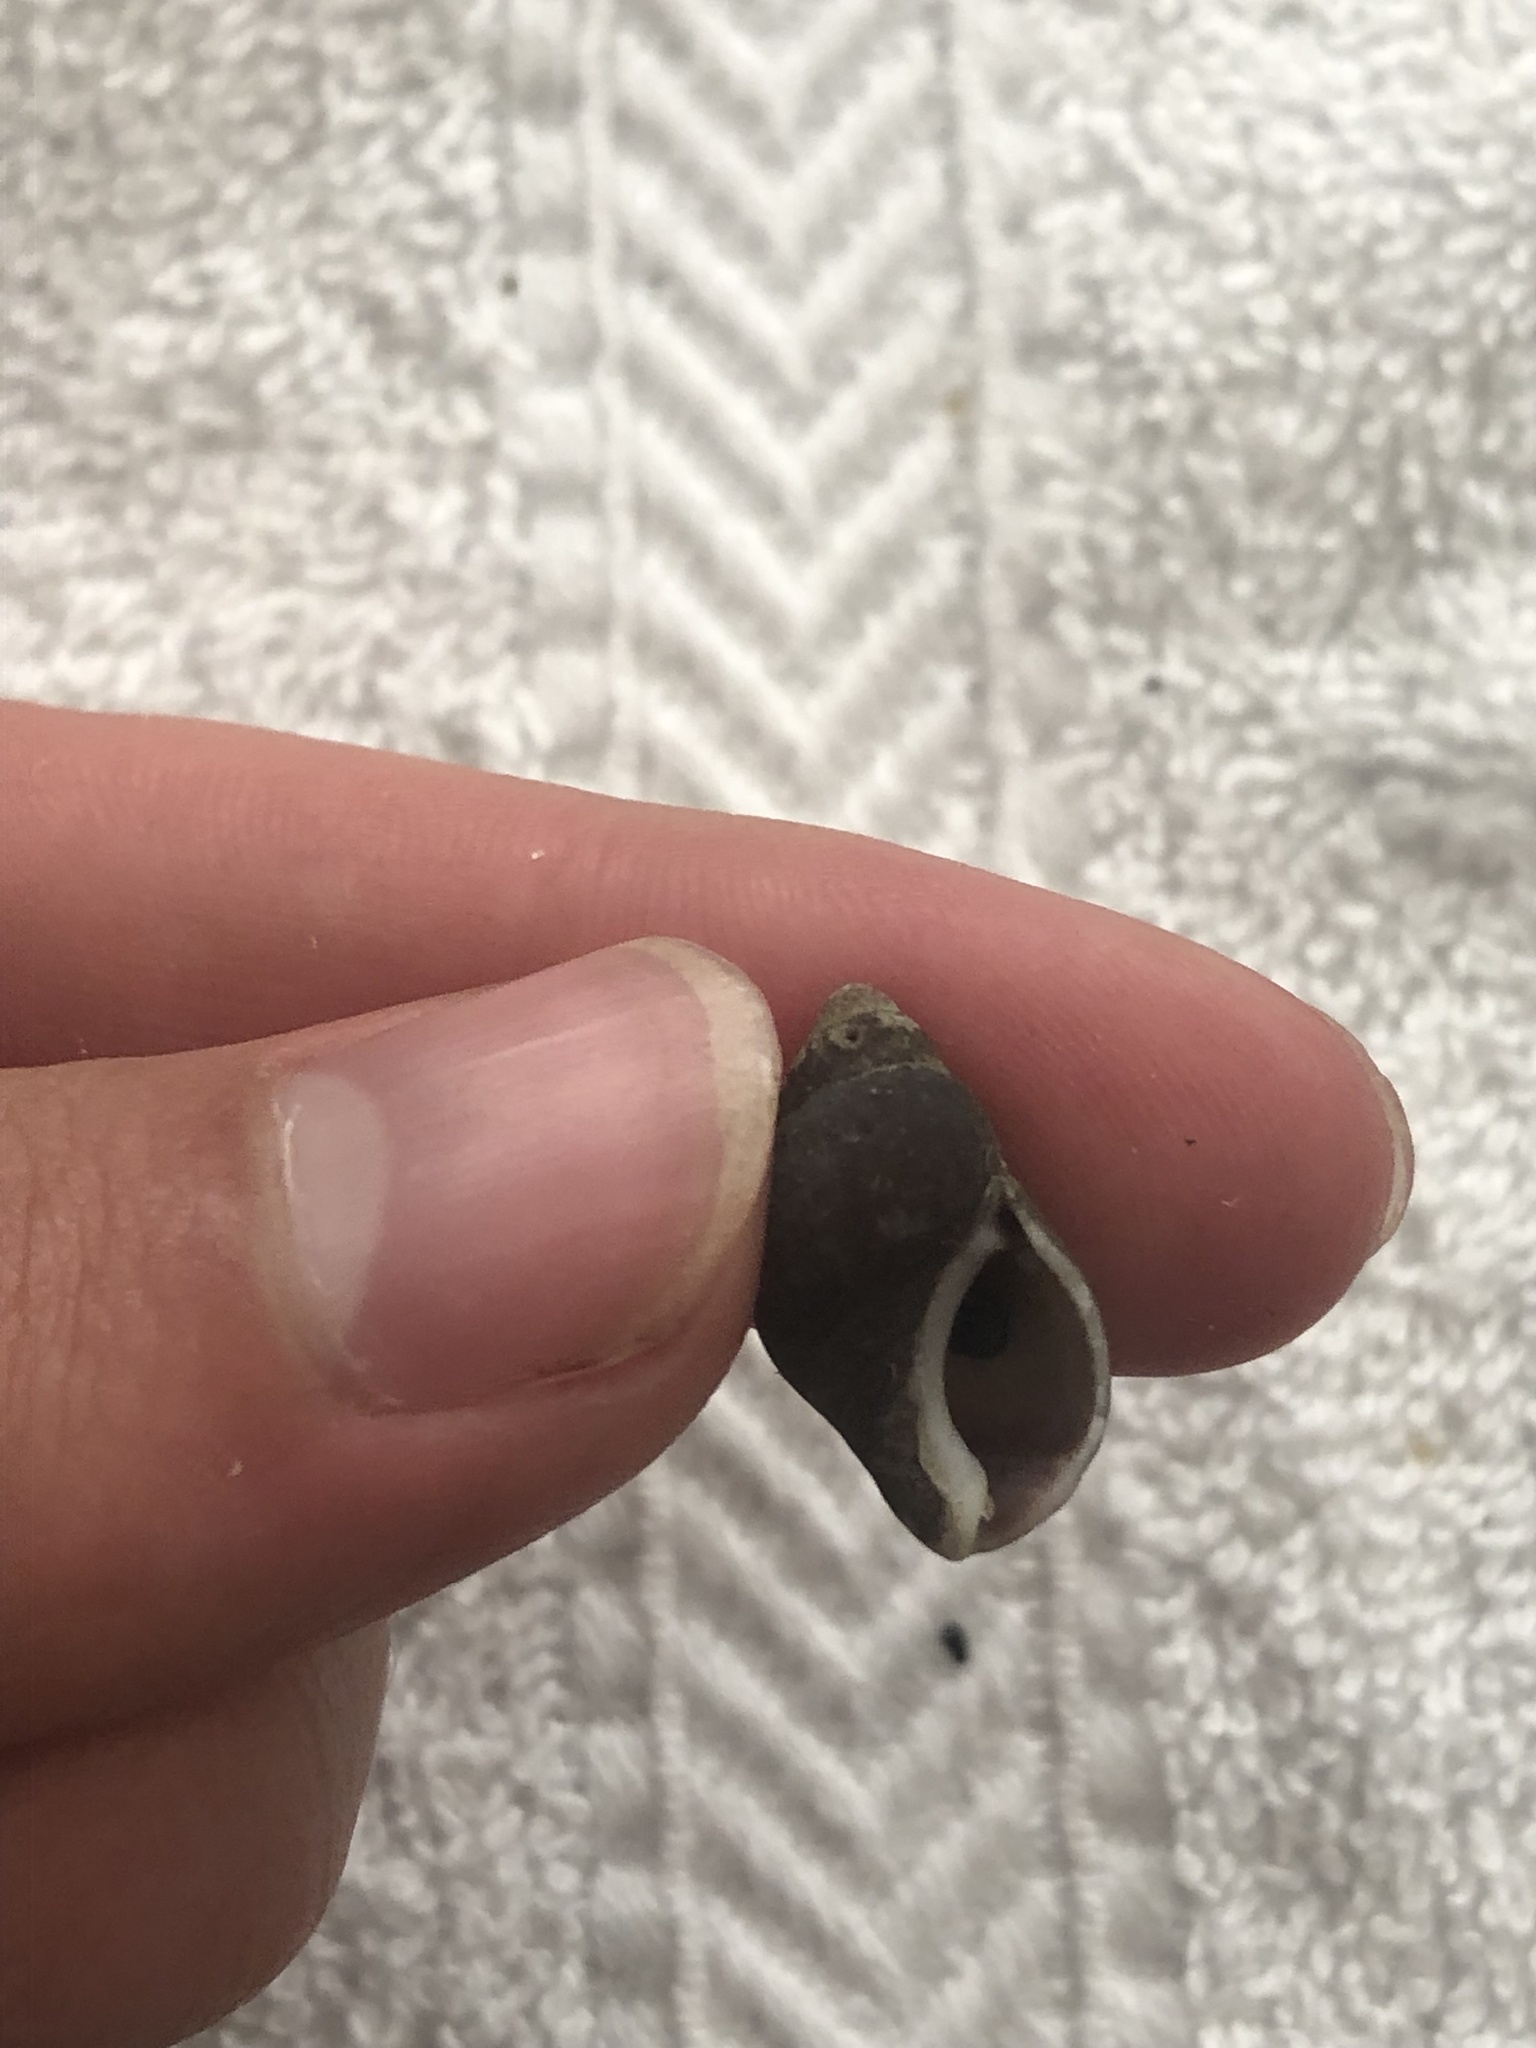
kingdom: Animalia
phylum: Mollusca
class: Gastropoda
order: Neogastropoda
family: Pseudolividae
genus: Macron
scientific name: Macron lividus
